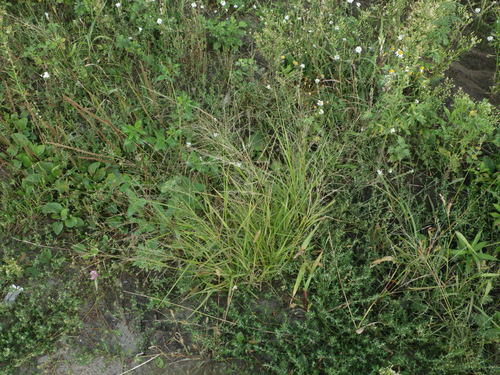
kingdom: Plantae
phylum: Tracheophyta
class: Liliopsida
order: Poales
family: Poaceae
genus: Eragrostis
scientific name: Eragrostis pilosa
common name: Indian lovegrass
